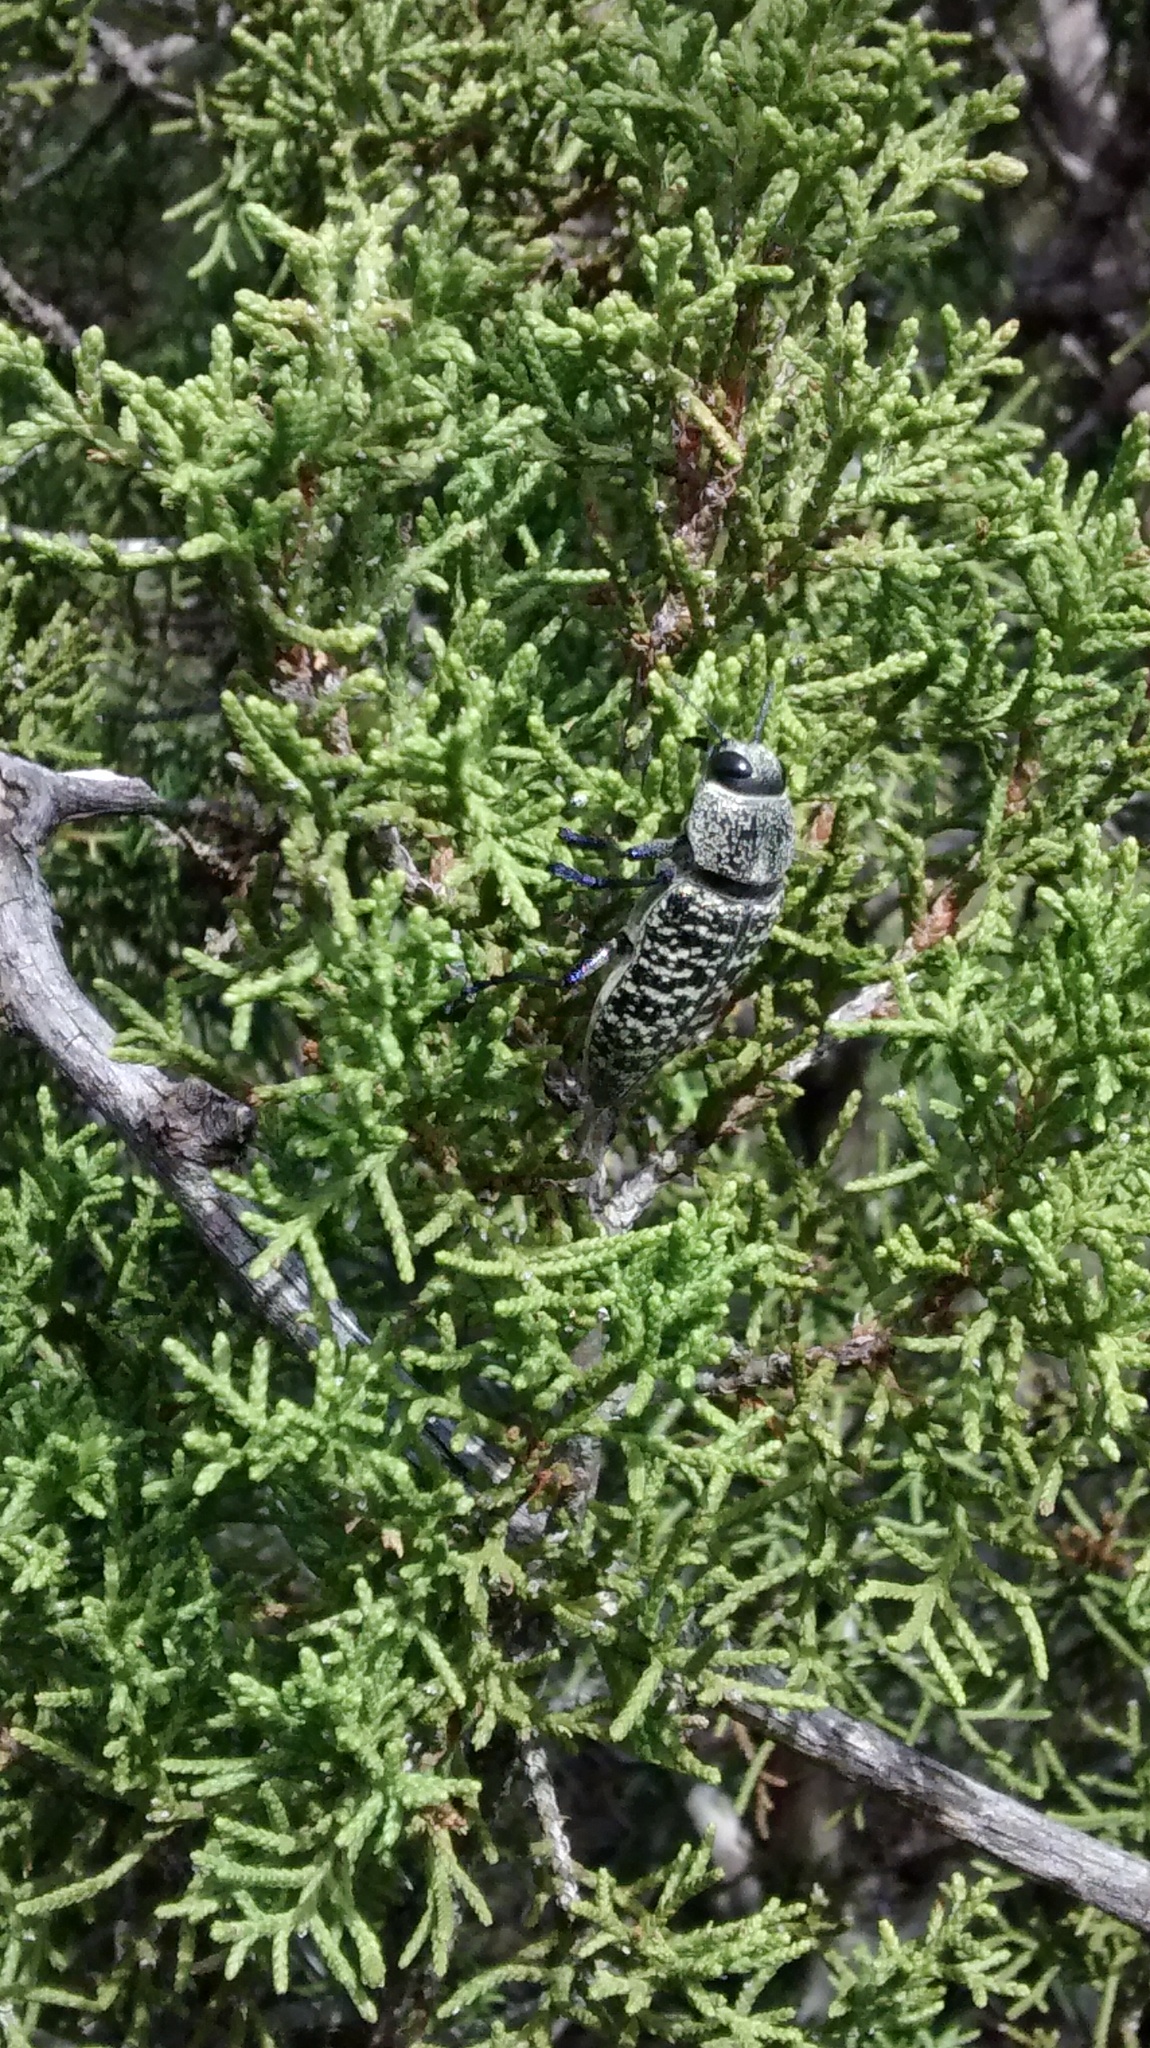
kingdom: Animalia
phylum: Arthropoda
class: Insecta
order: Coleoptera
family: Buprestidae
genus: Lampetis
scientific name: Lampetis drummondi
